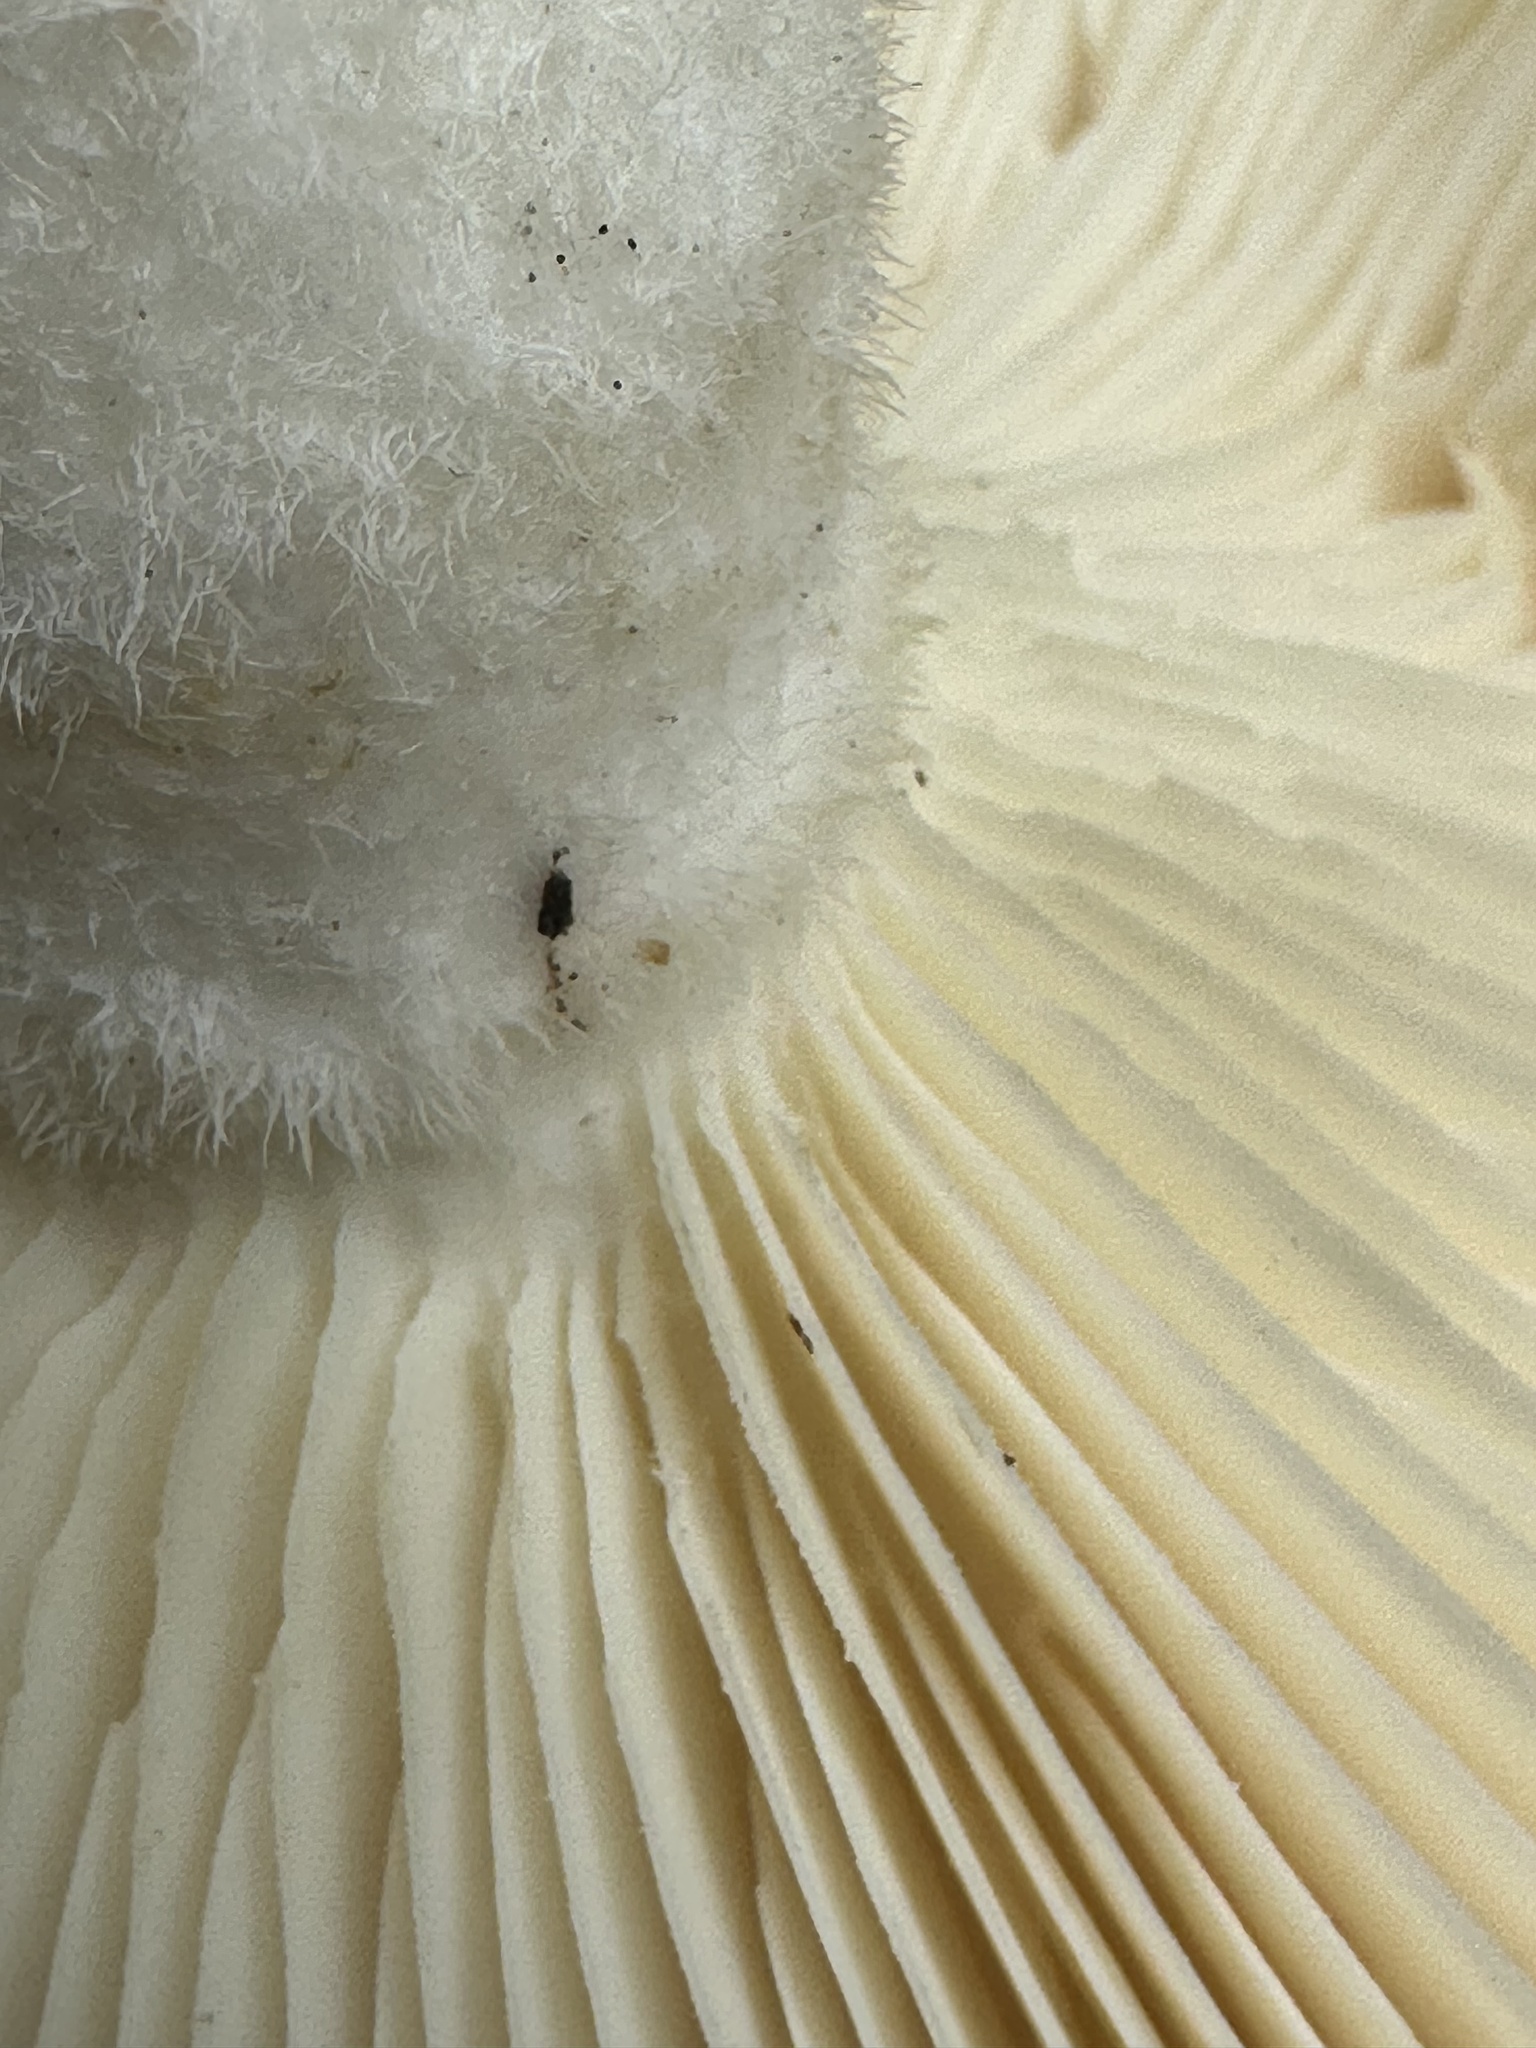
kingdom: Fungi
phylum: Basidiomycota
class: Agaricomycetes
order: Polyporales
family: Polyporaceae
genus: Lentinus
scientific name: Lentinus levis
